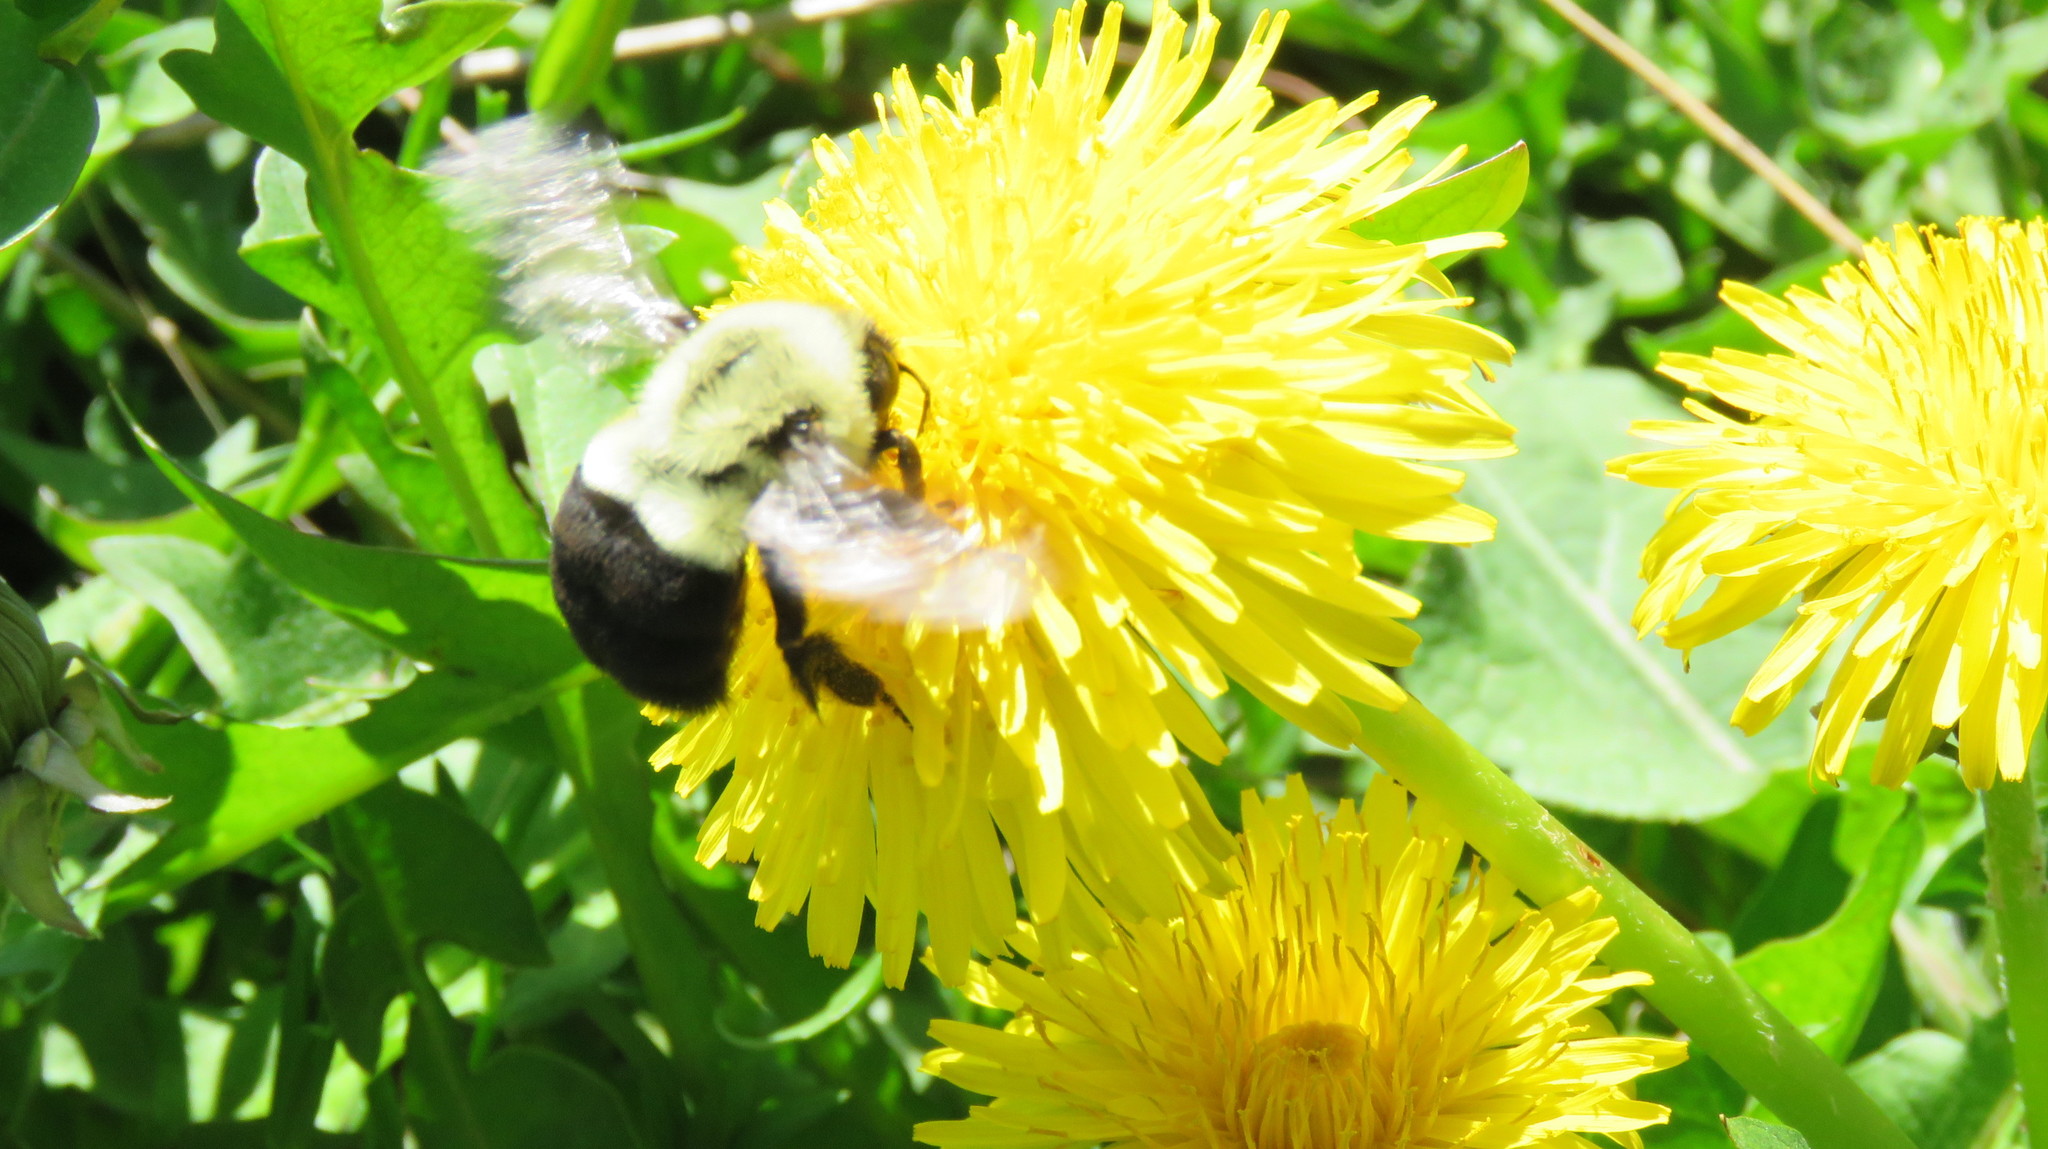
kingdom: Animalia
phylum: Arthropoda
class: Insecta
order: Hymenoptera
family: Apidae
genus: Bombus
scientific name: Bombus impatiens
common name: Common eastern bumble bee
